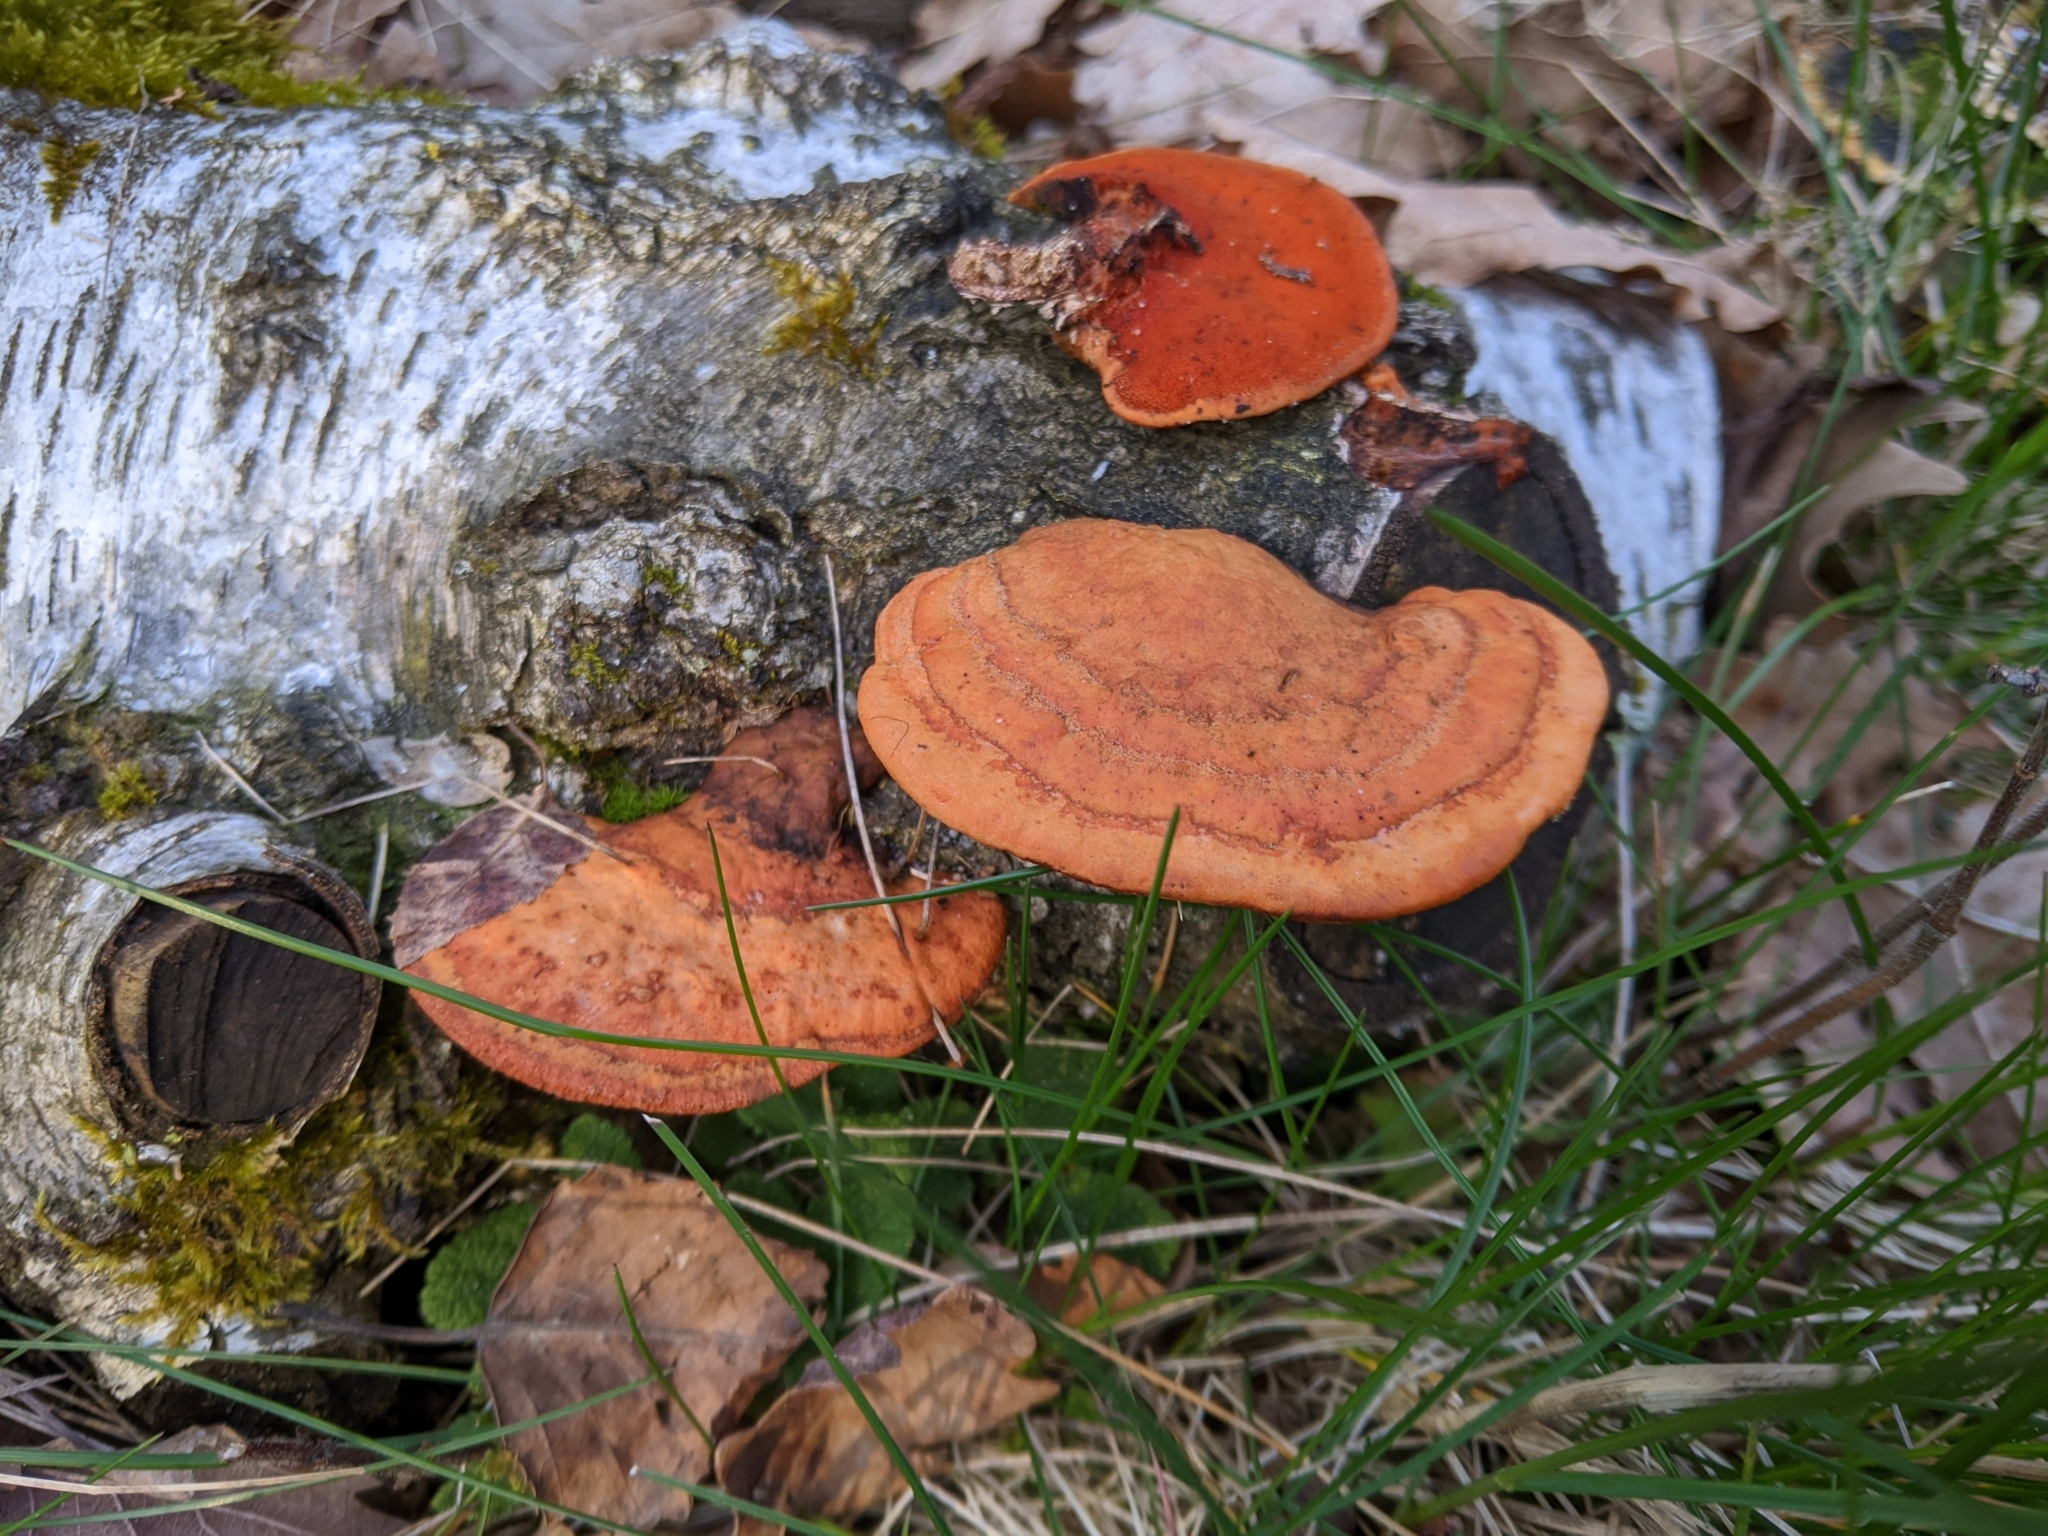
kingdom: Fungi
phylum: Basidiomycota
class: Agaricomycetes
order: Polyporales
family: Polyporaceae
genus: Trametes
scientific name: Trametes cinnabarina
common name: Northern cinnabar polypore
